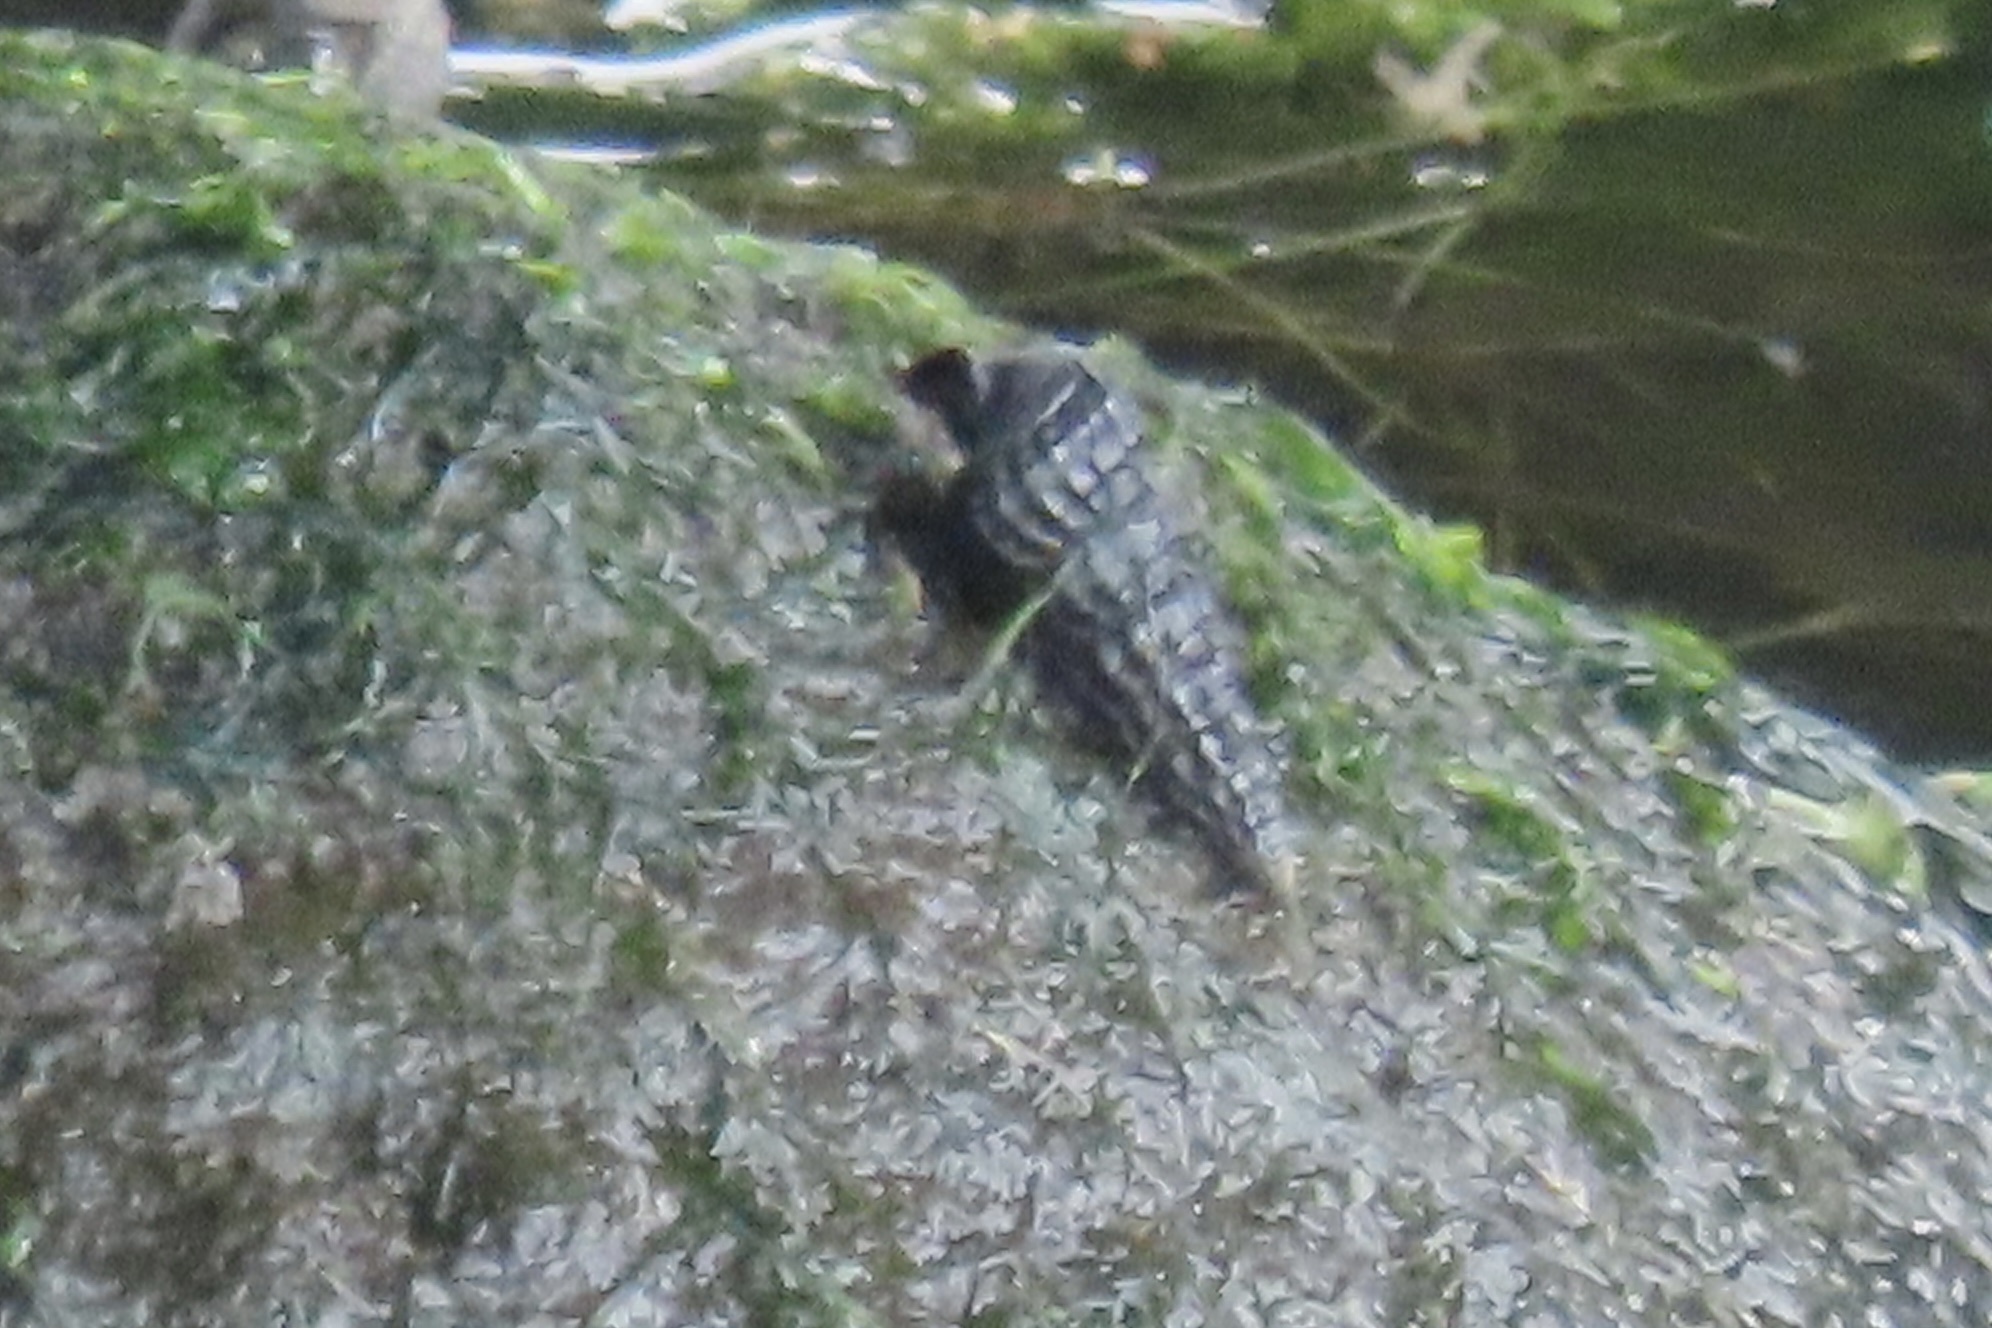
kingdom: Animalia
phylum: Mollusca
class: Gastropoda
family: Potamididae
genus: Cerithideopsis
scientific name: Cerithideopsis californica
